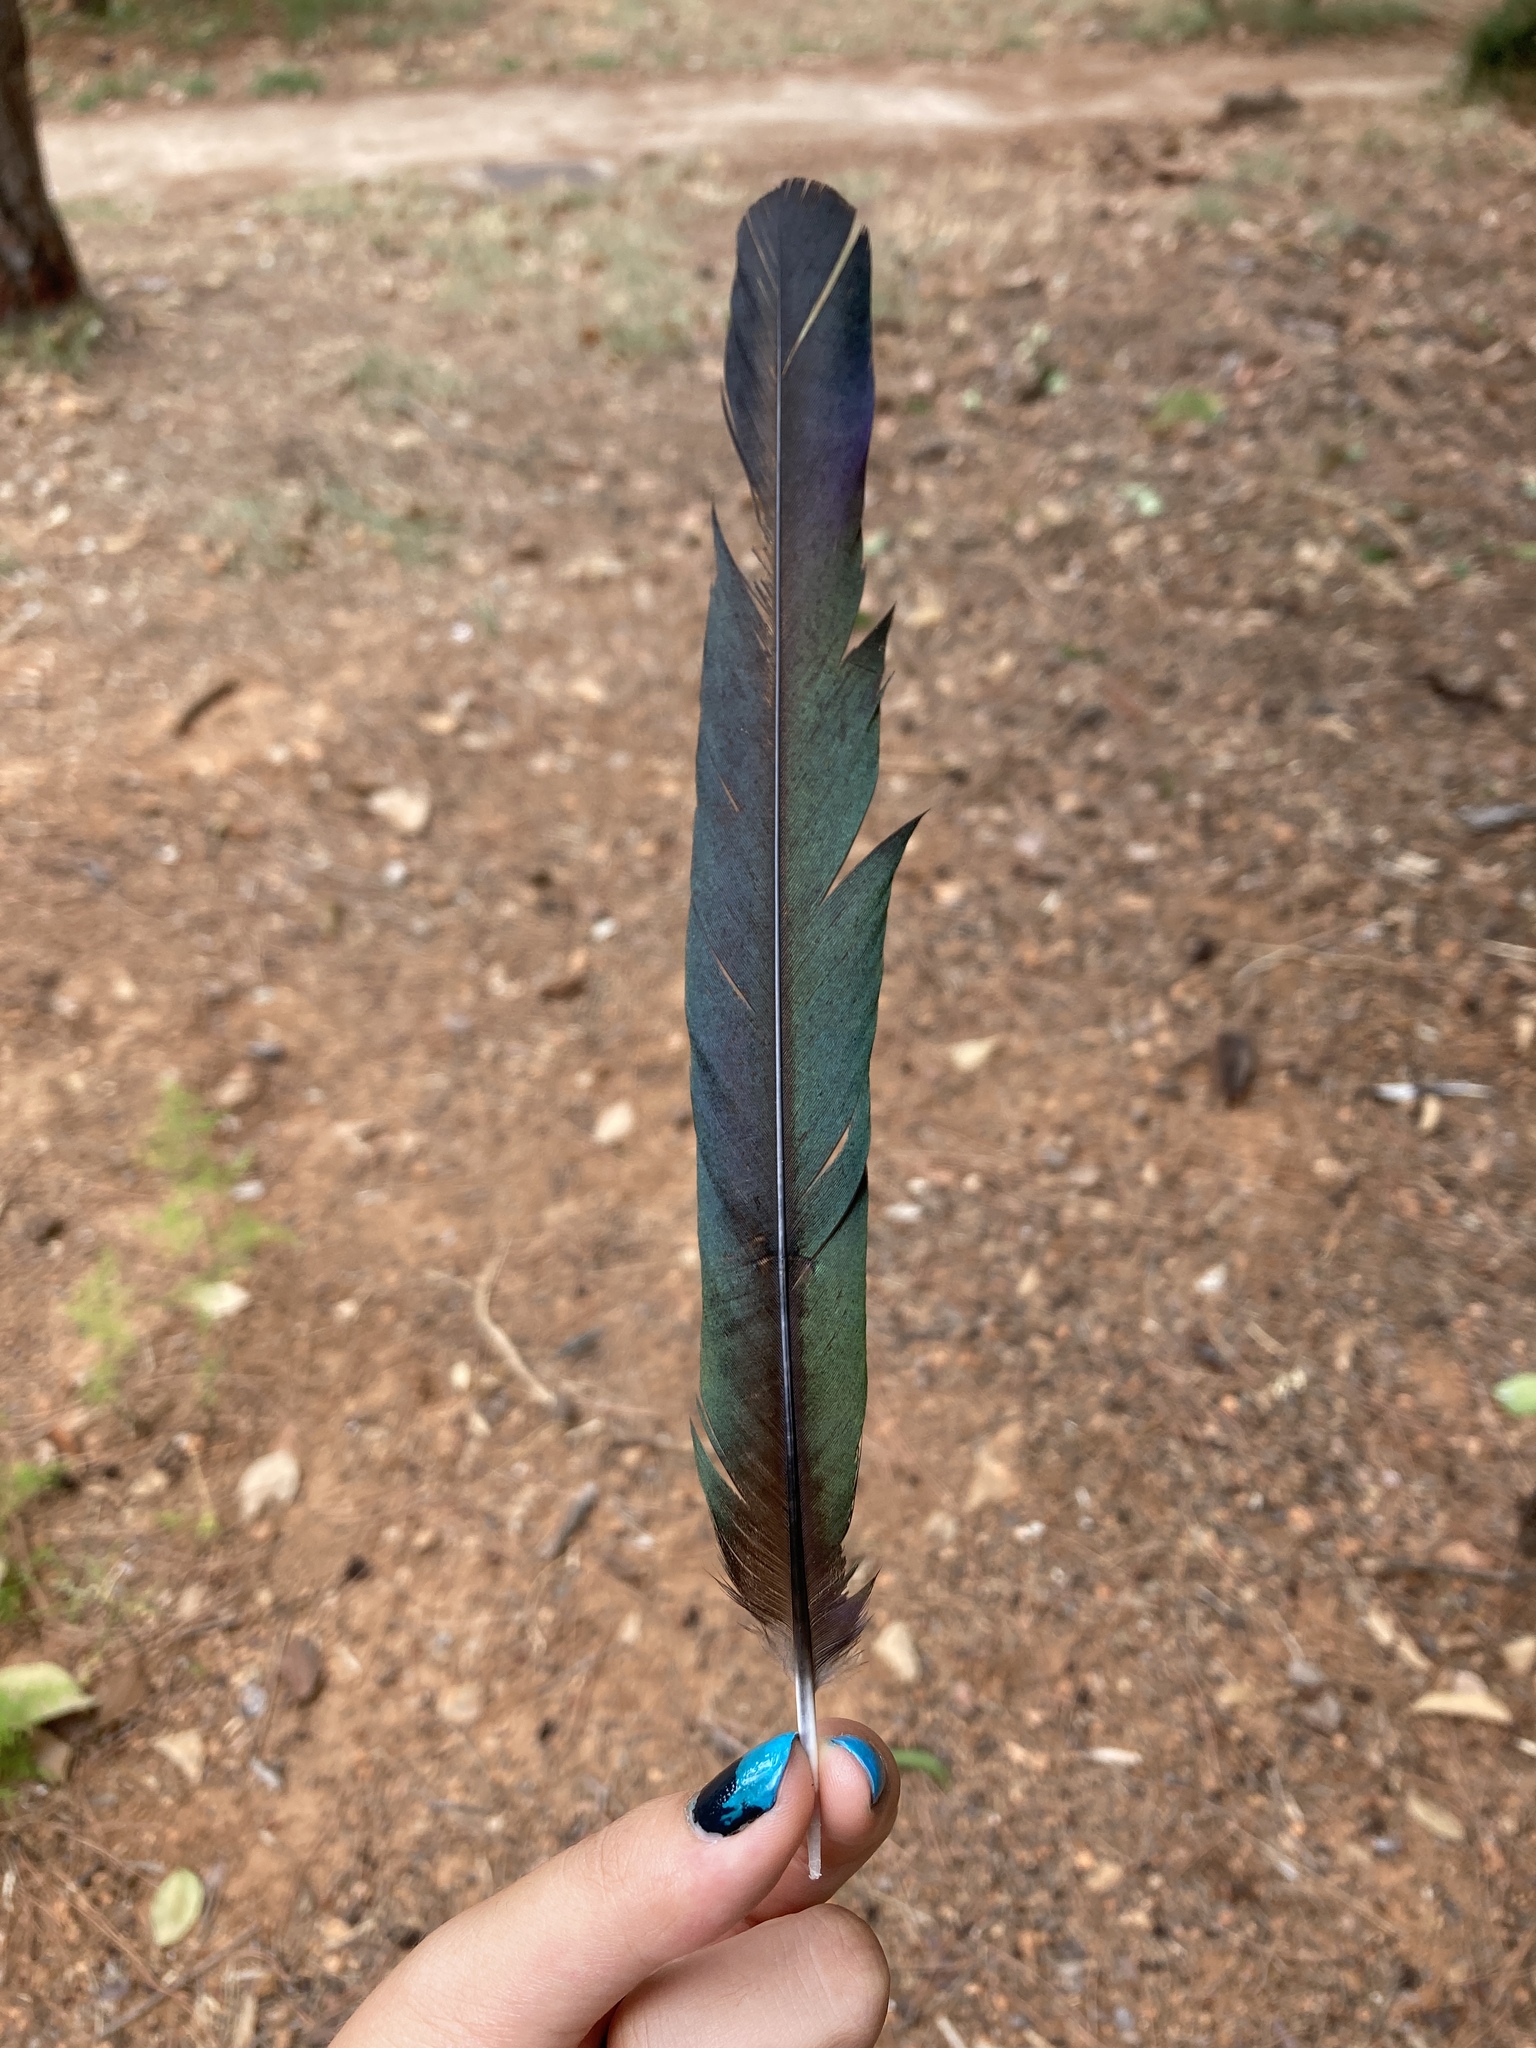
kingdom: Animalia
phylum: Chordata
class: Aves
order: Passeriformes
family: Corvidae
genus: Pica
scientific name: Pica pica
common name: Eurasian magpie
